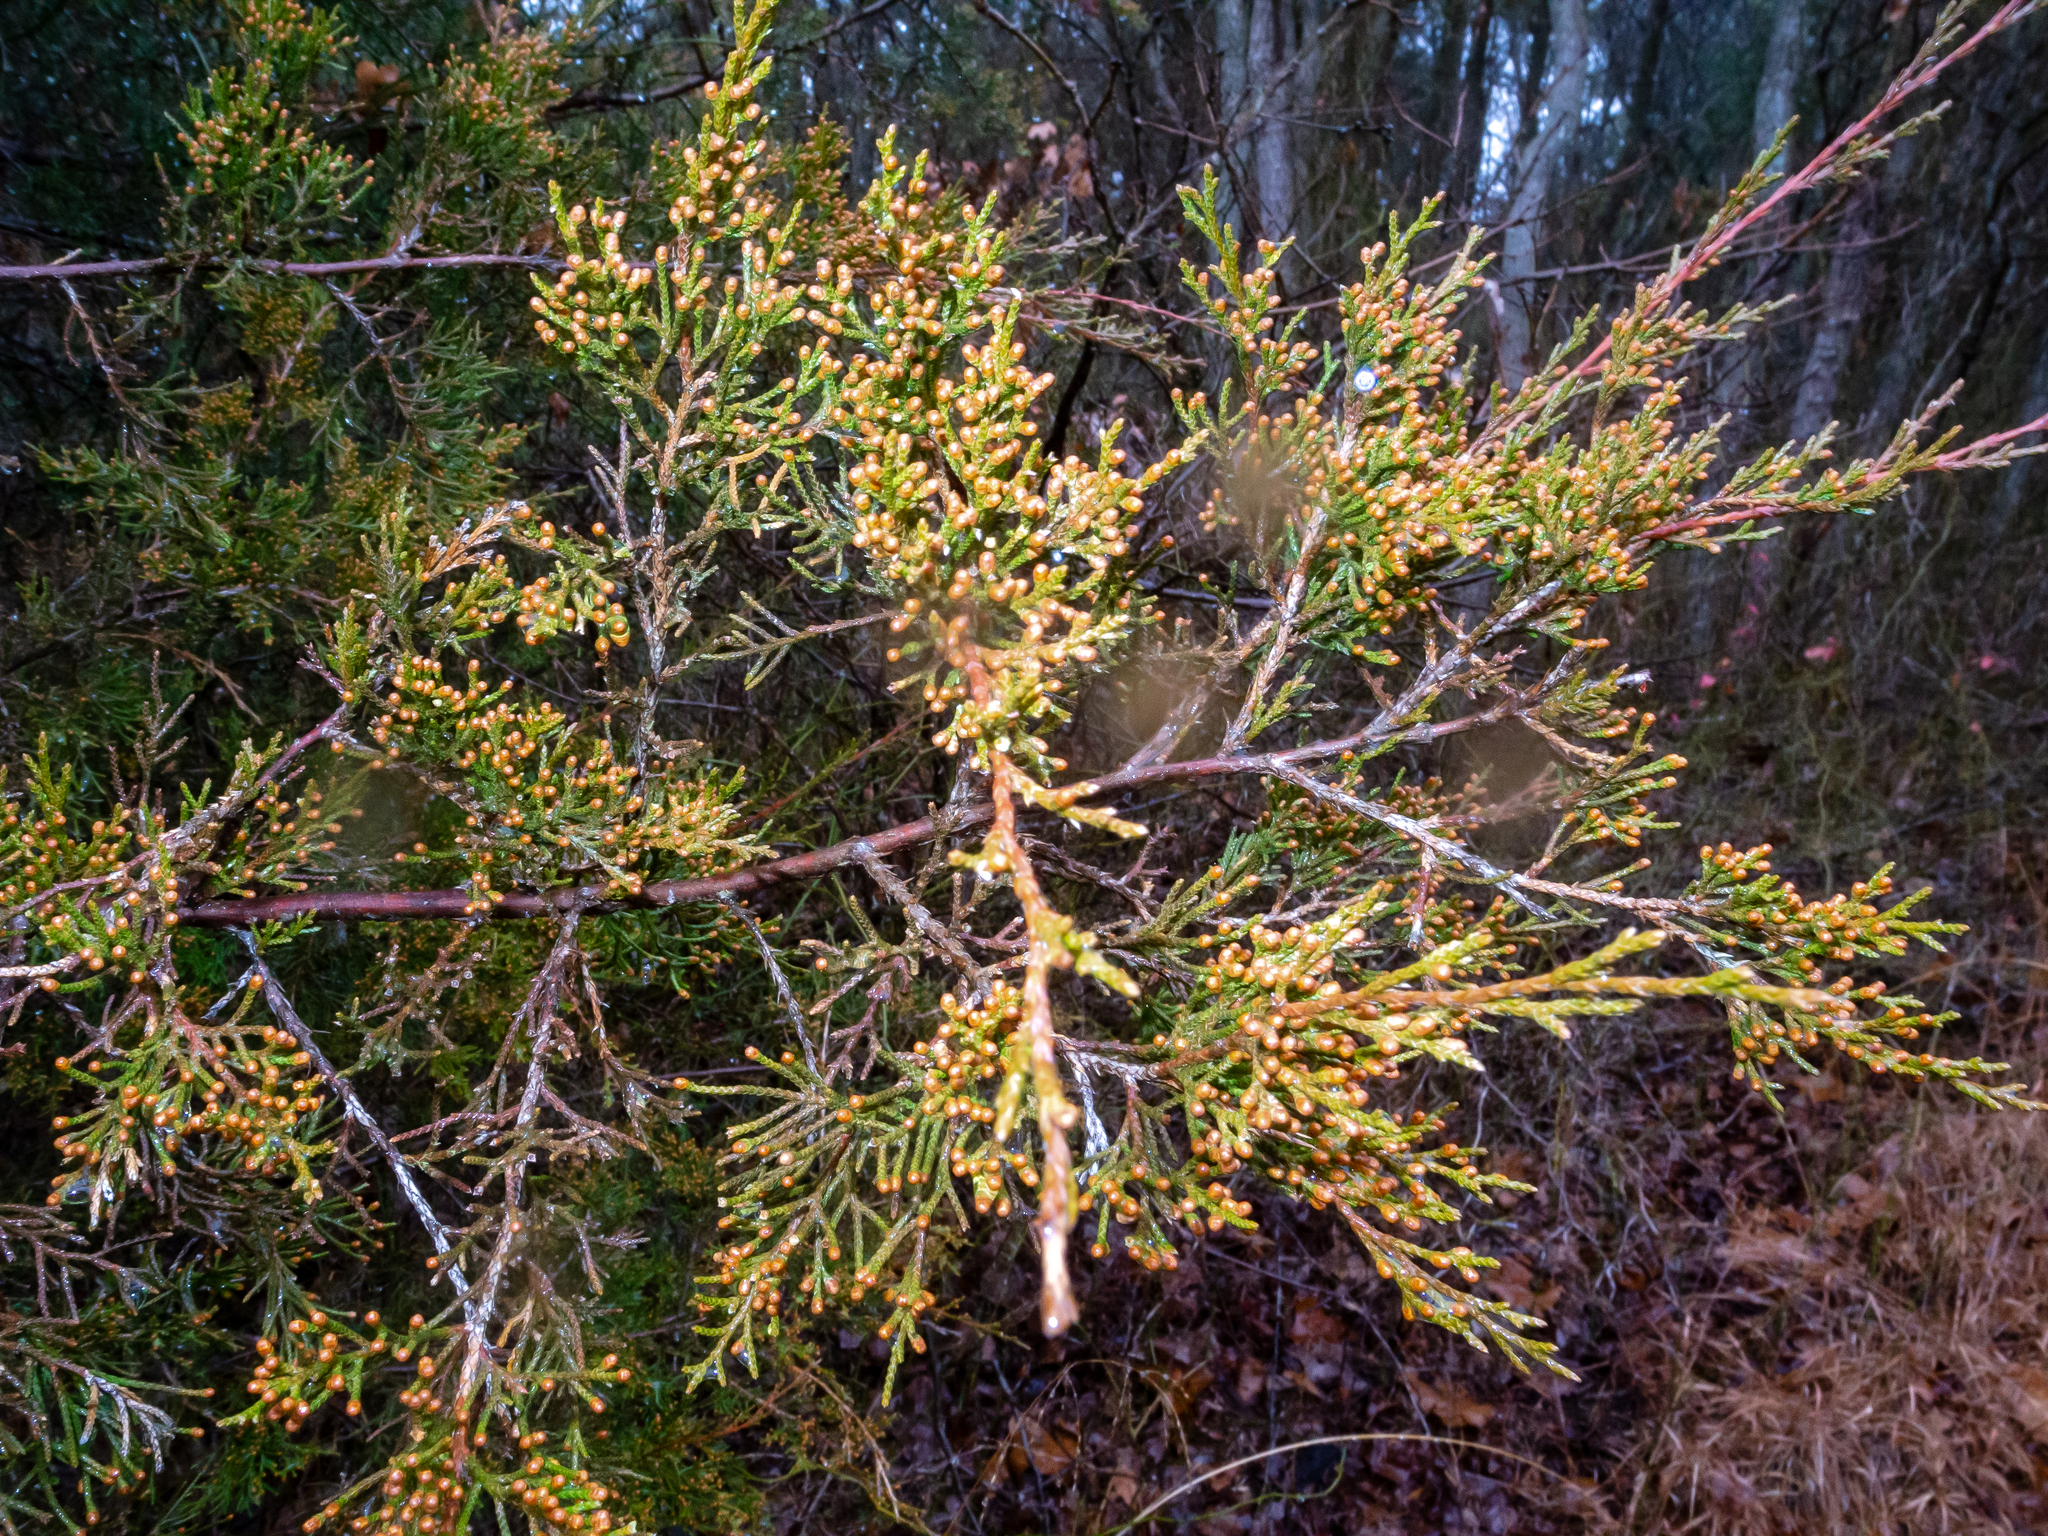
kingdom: Plantae
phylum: Tracheophyta
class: Pinopsida
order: Pinales
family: Cupressaceae
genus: Juniperus
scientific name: Juniperus virginiana
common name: Red juniper
